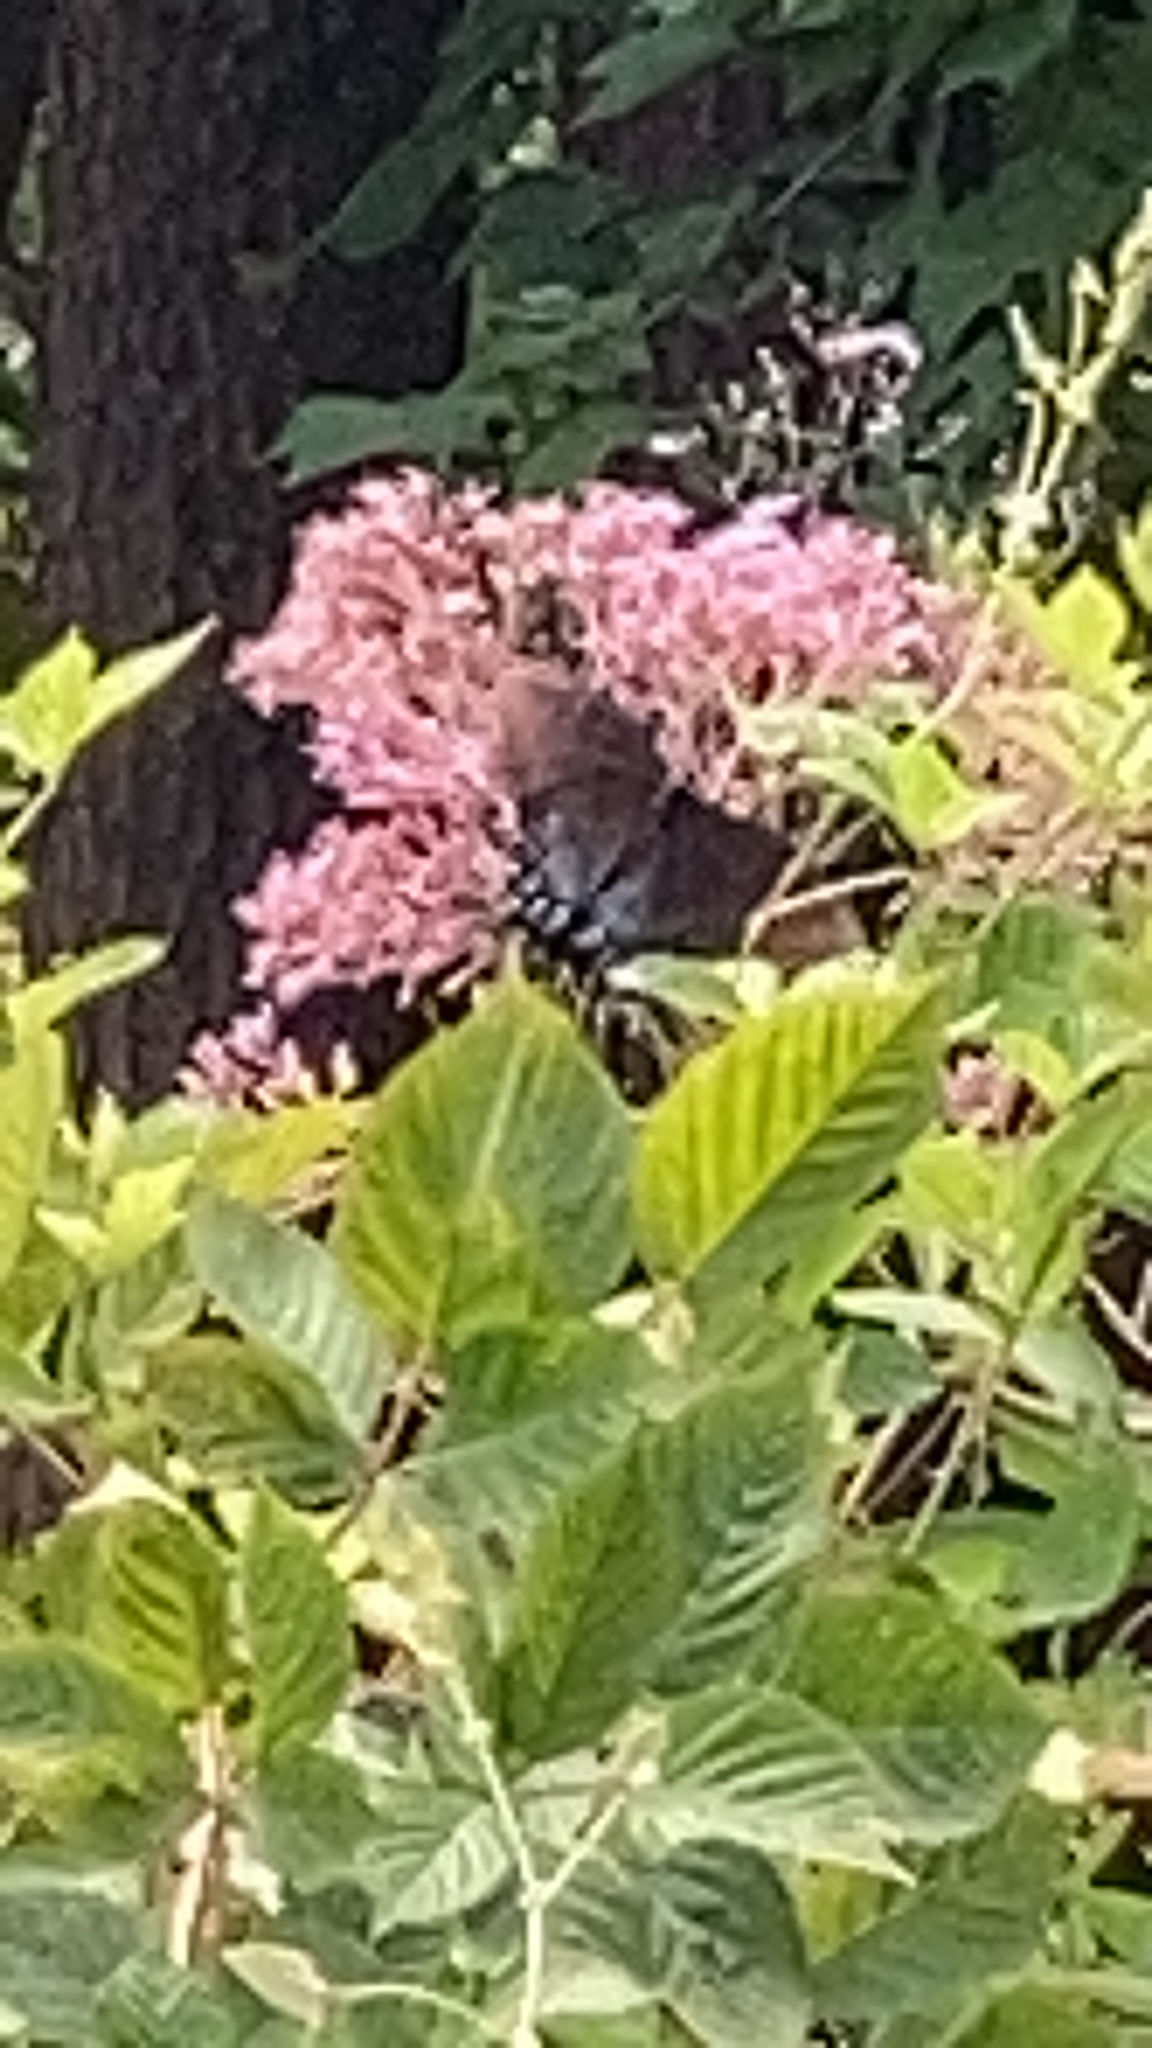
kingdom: Animalia
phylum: Arthropoda
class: Insecta
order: Lepidoptera
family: Papilionidae
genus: Papilio
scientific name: Papilio glaucus
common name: Tiger swallowtail
